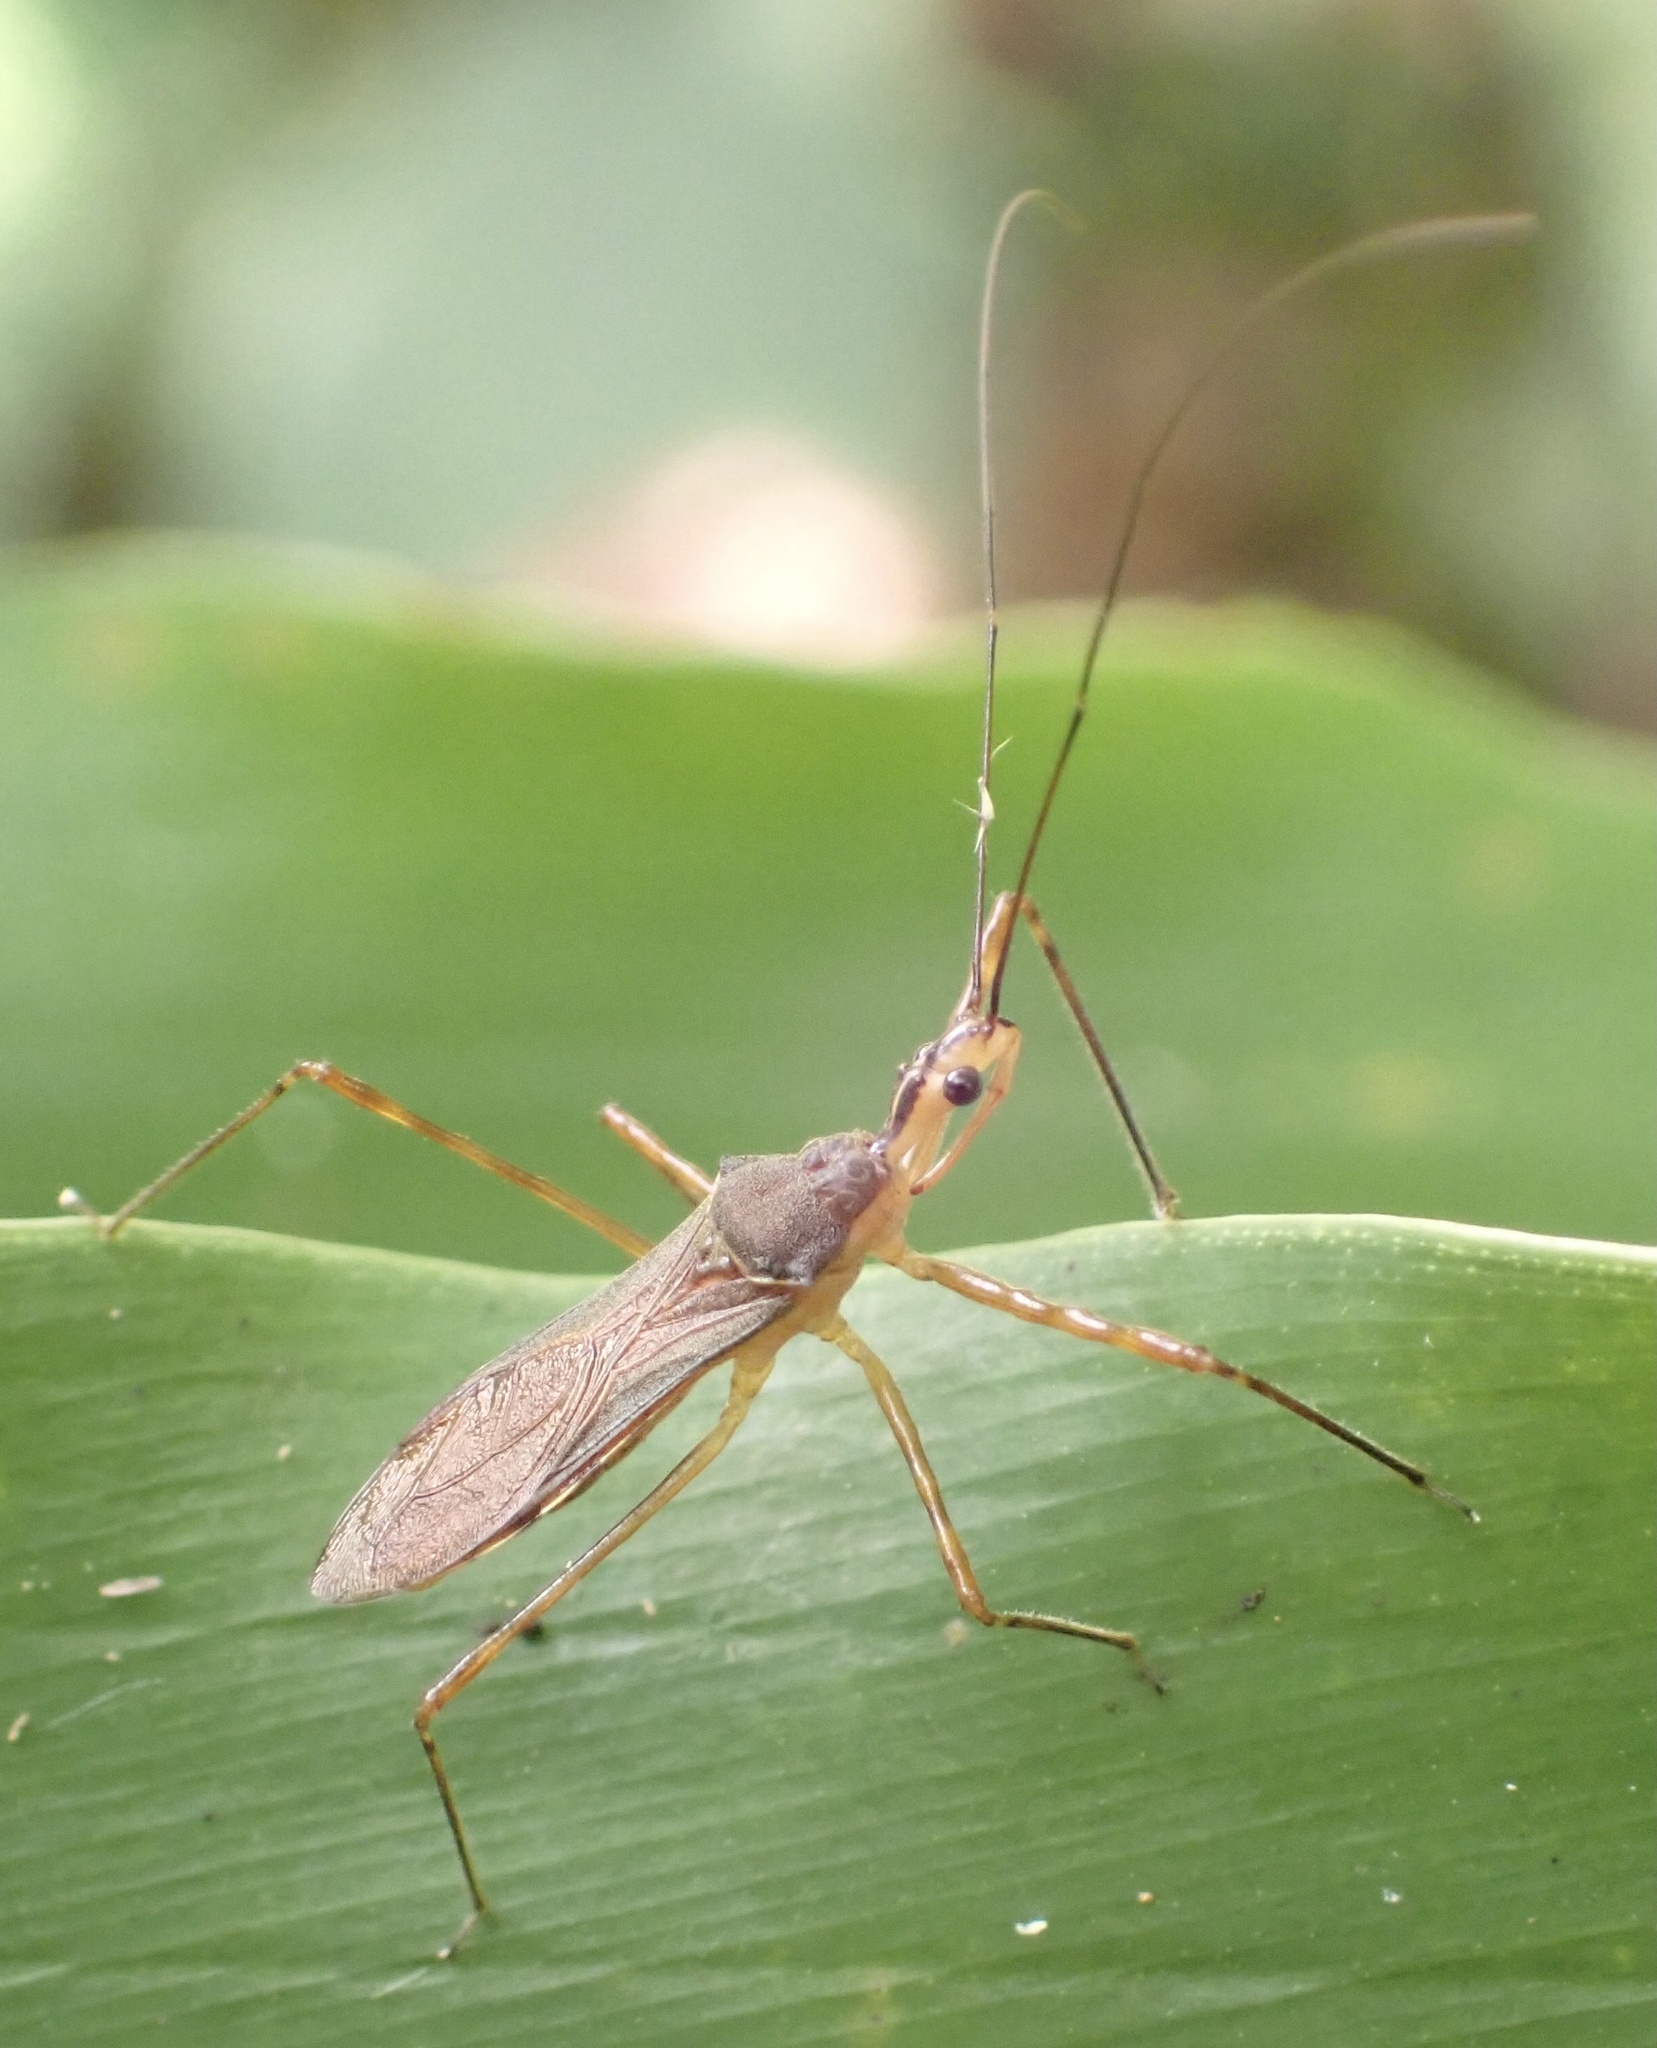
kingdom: Animalia
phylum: Arthropoda
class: Insecta
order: Hemiptera
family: Reduviidae
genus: Vestula
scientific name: Vestula lineaticeps
